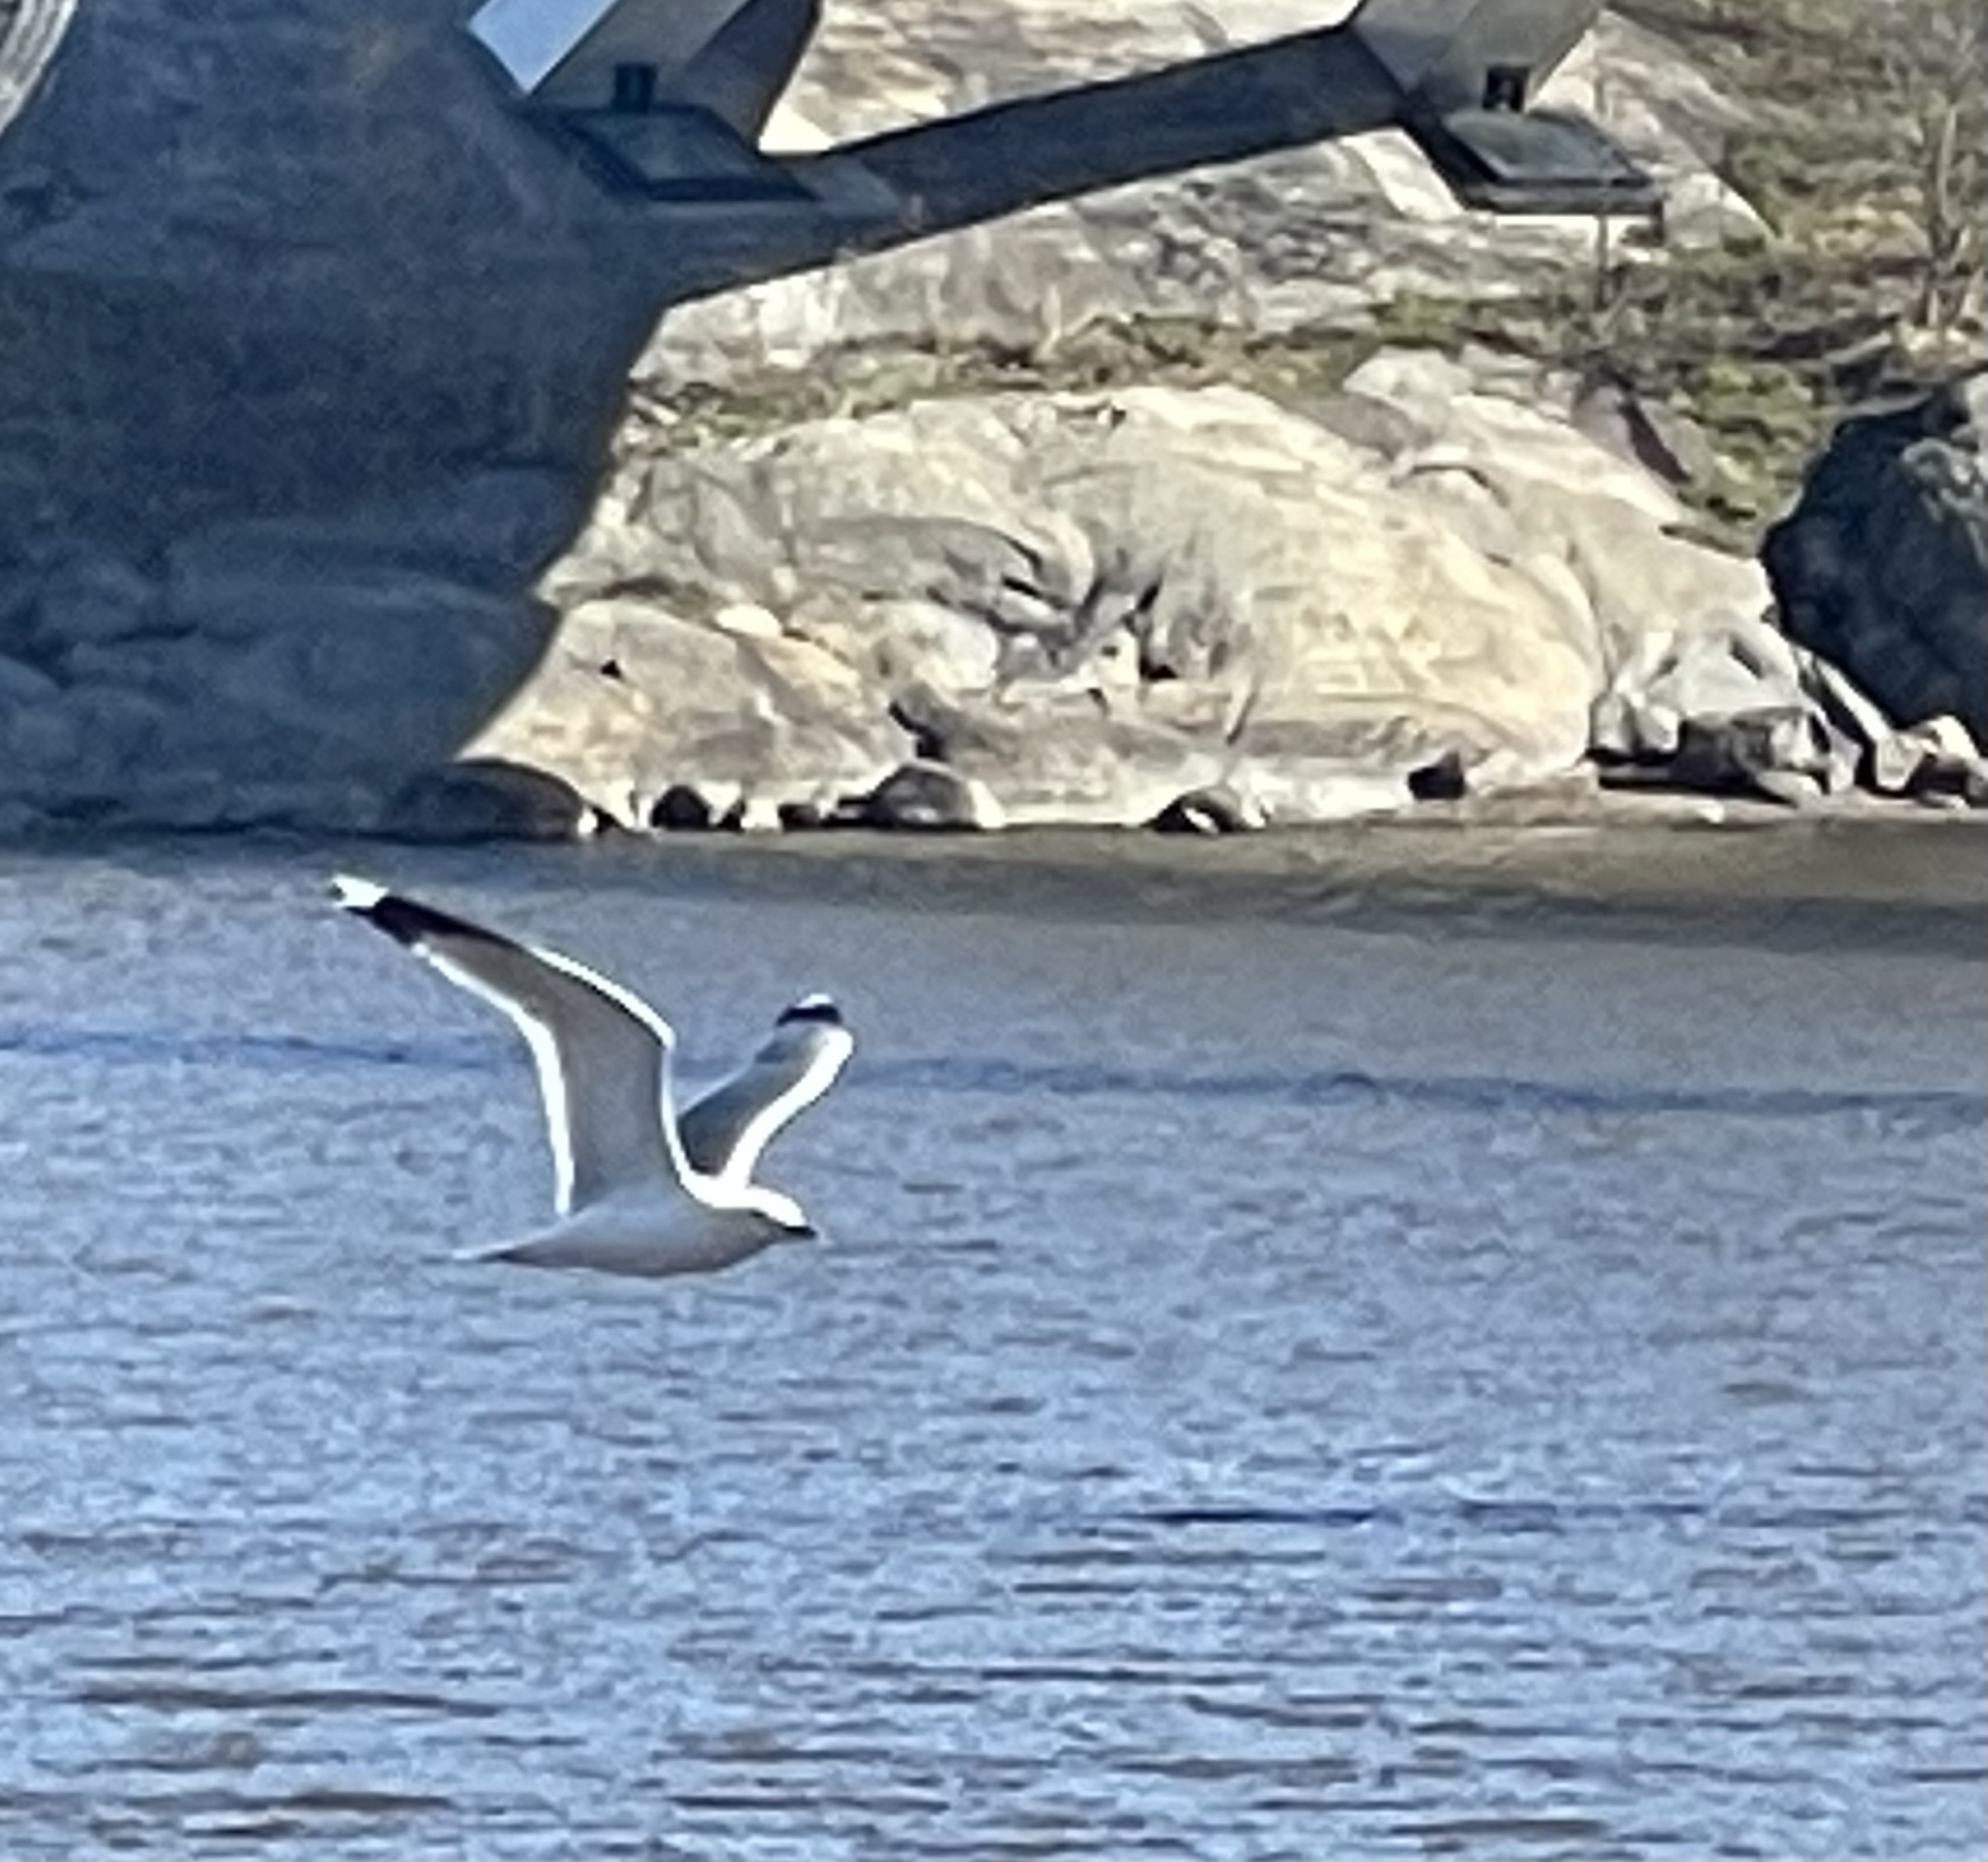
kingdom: Animalia
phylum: Chordata
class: Aves
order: Charadriiformes
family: Laridae
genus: Larus
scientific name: Larus canus
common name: Mew gull
